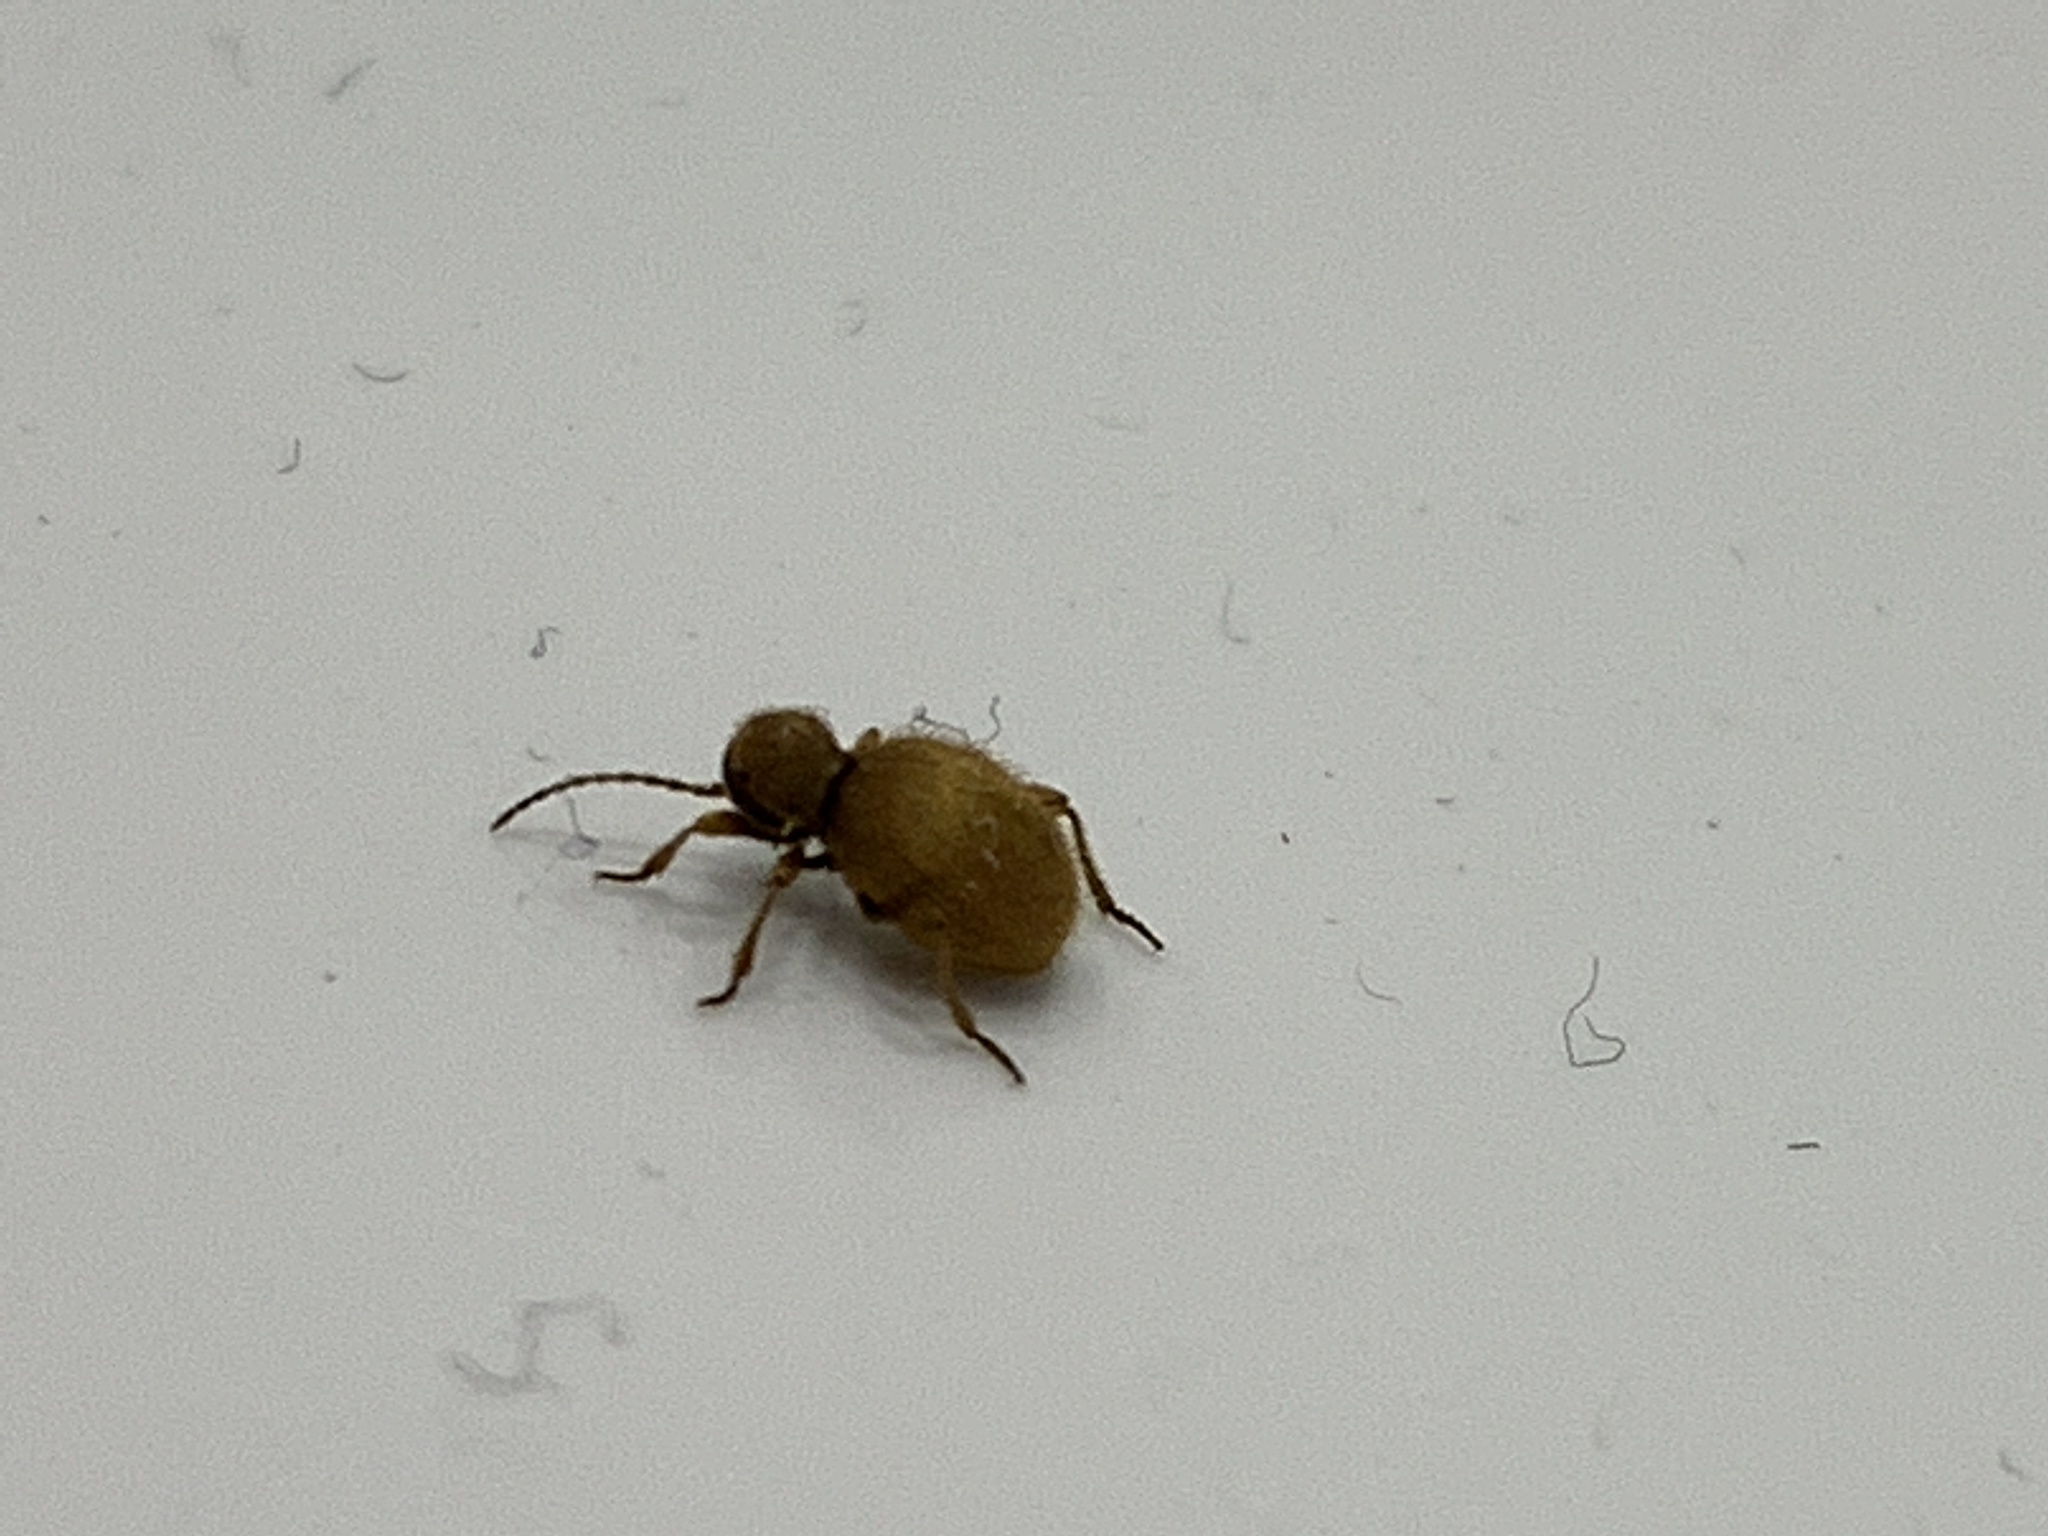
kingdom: Animalia
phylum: Arthropoda
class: Insecta
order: Coleoptera
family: Ptinidae
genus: Niptus
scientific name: Niptus hololeucus
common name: Golden spider beetle
